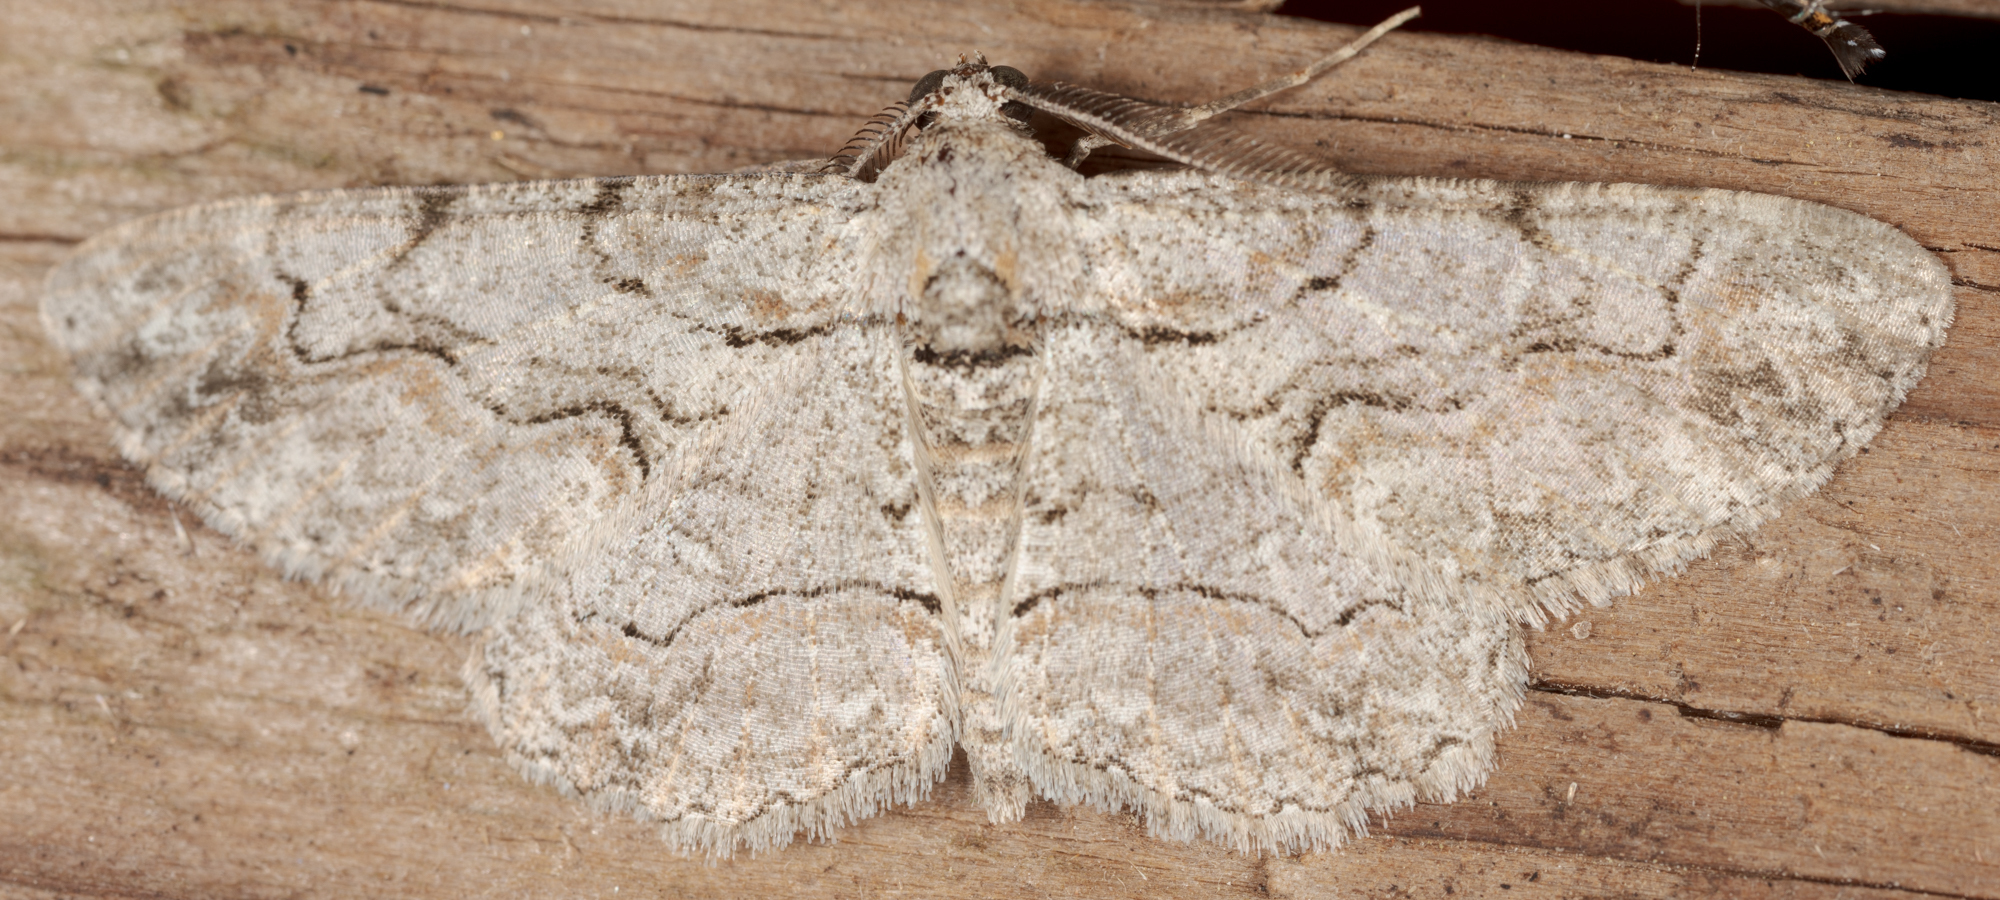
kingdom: Animalia
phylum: Arthropoda
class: Insecta
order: Lepidoptera
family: Geometridae
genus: Iridopsis
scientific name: Iridopsis defectaria
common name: Brown-shaded gray
